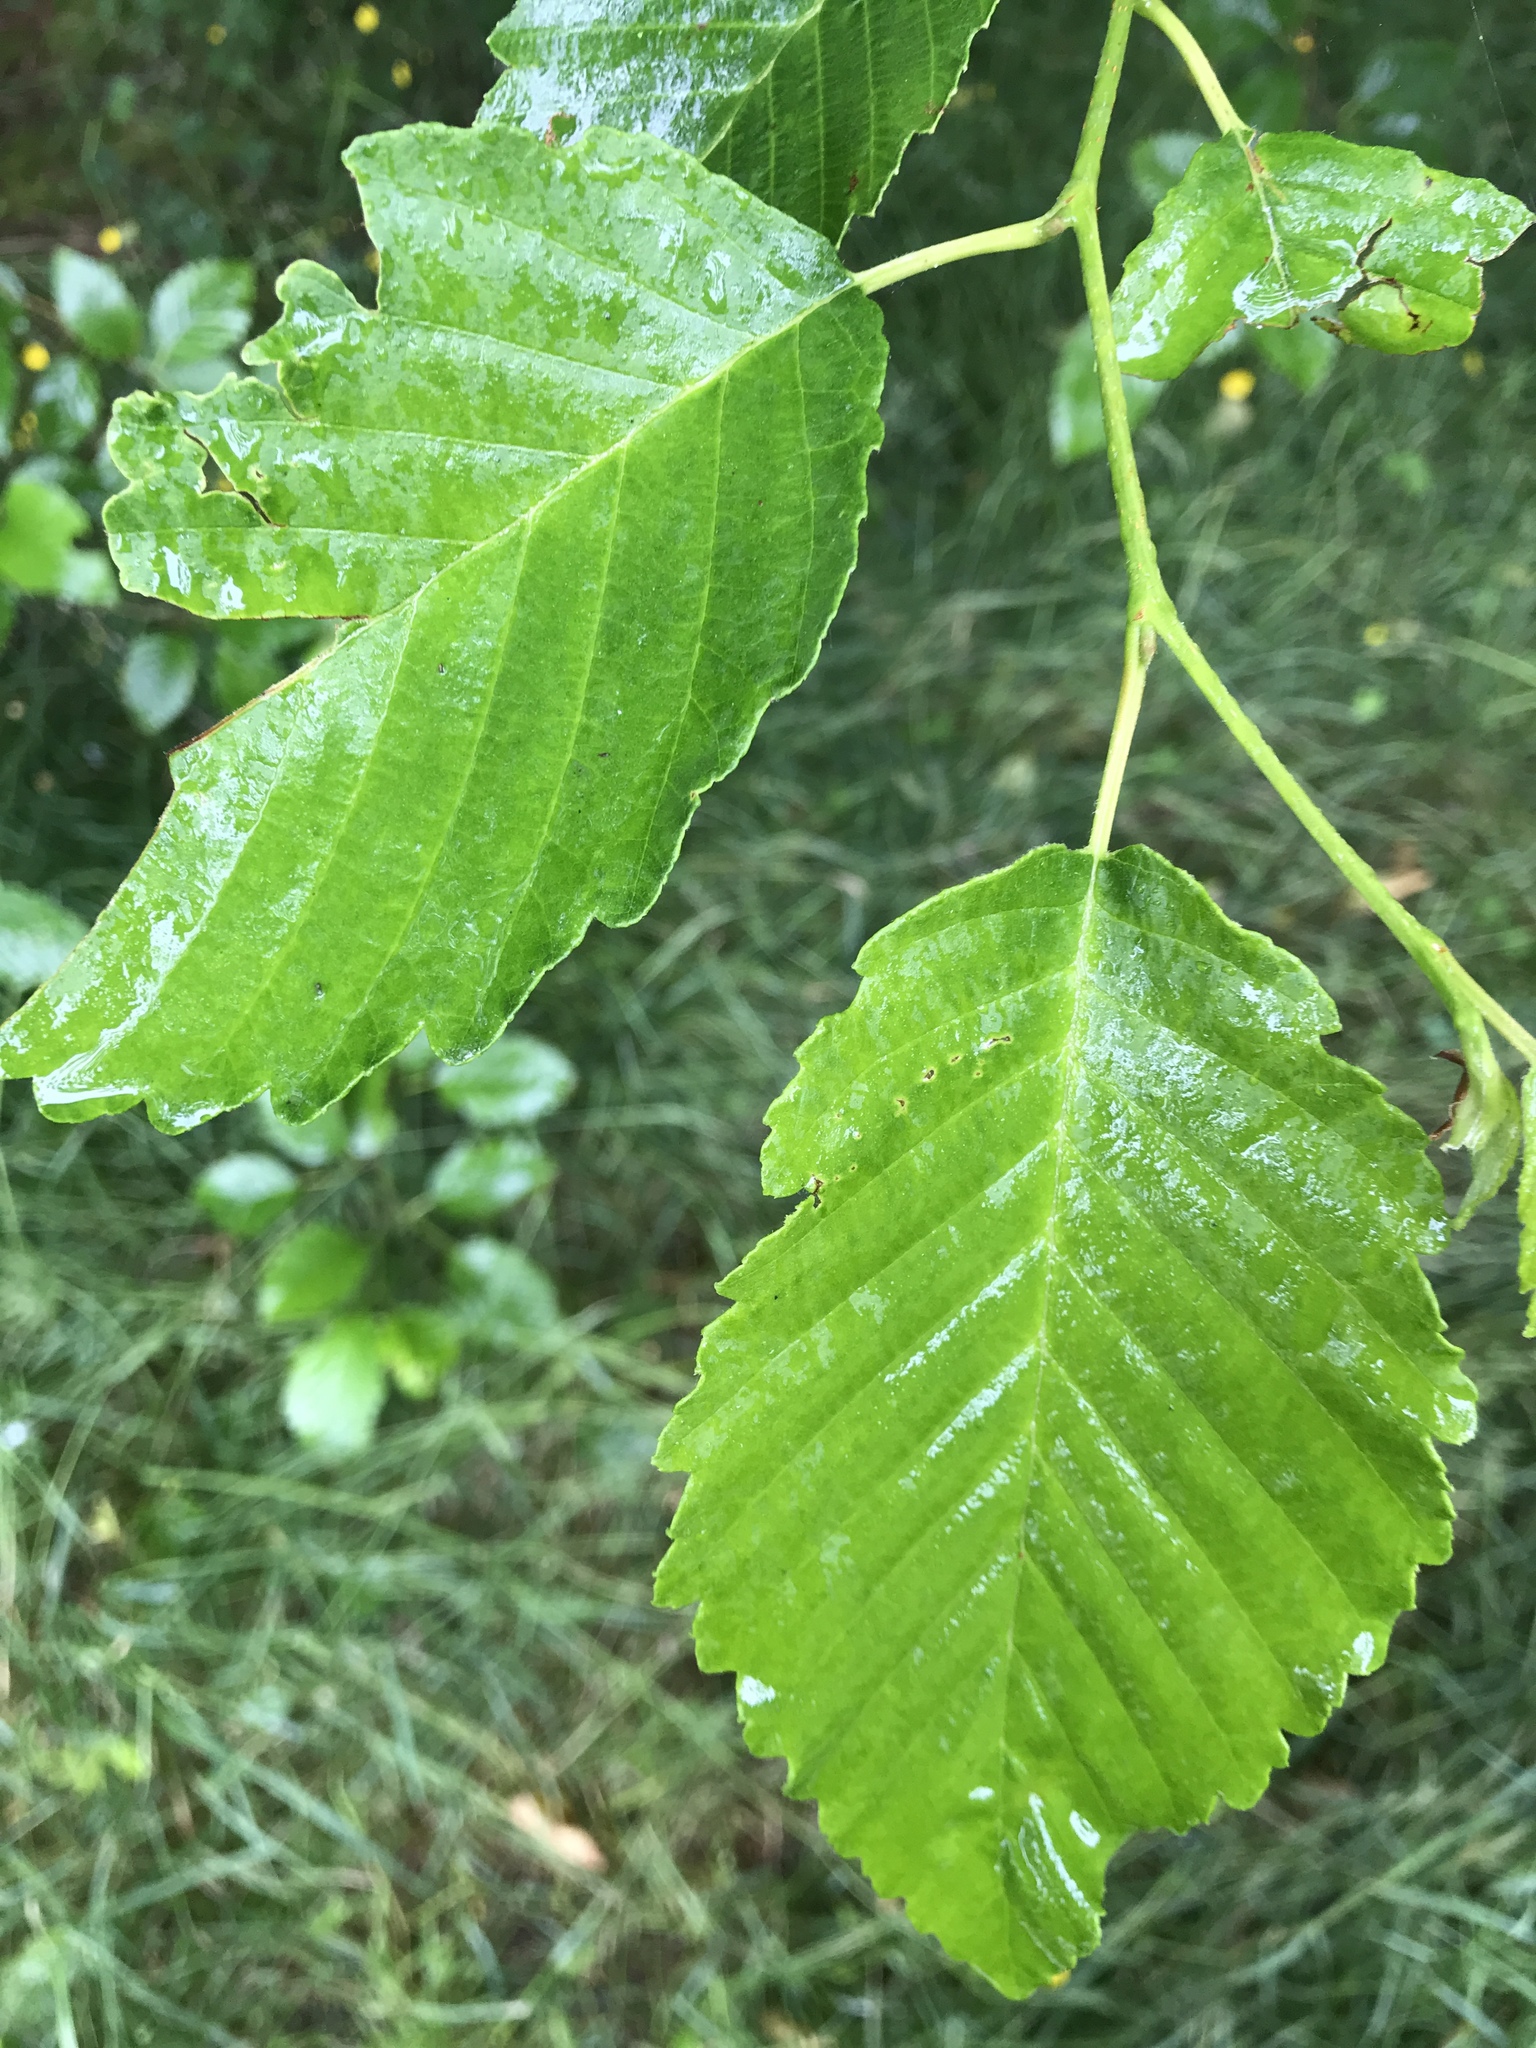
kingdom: Plantae
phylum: Tracheophyta
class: Magnoliopsida
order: Fagales
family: Betulaceae
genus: Alnus
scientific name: Alnus rubra
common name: Red alder
